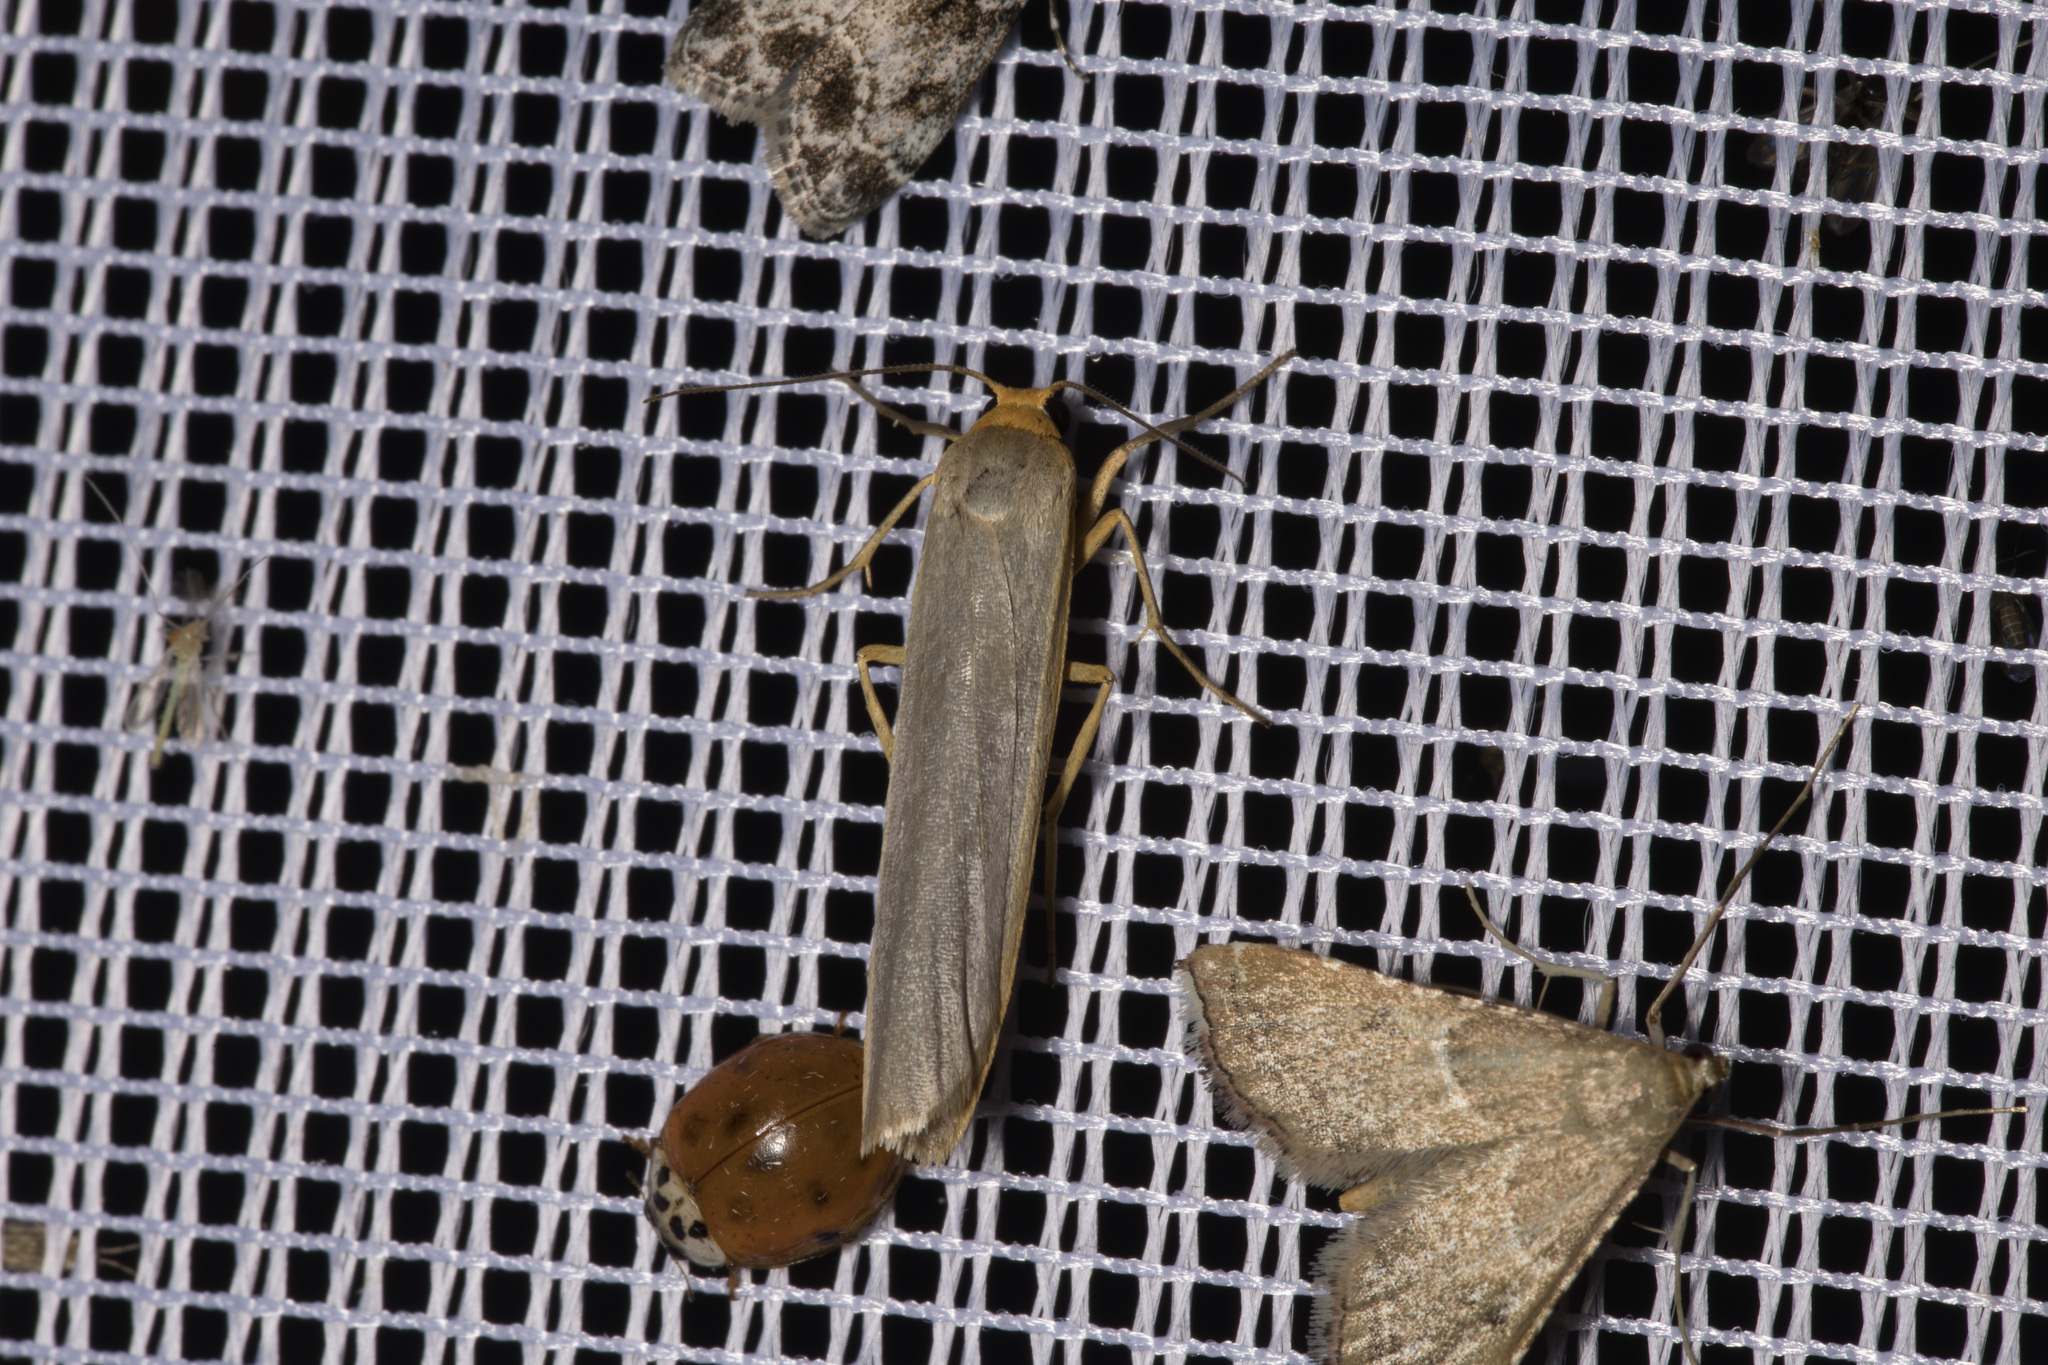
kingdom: Animalia
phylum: Arthropoda
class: Insecta
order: Lepidoptera
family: Erebidae
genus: Manulea
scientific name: Manulea complana
